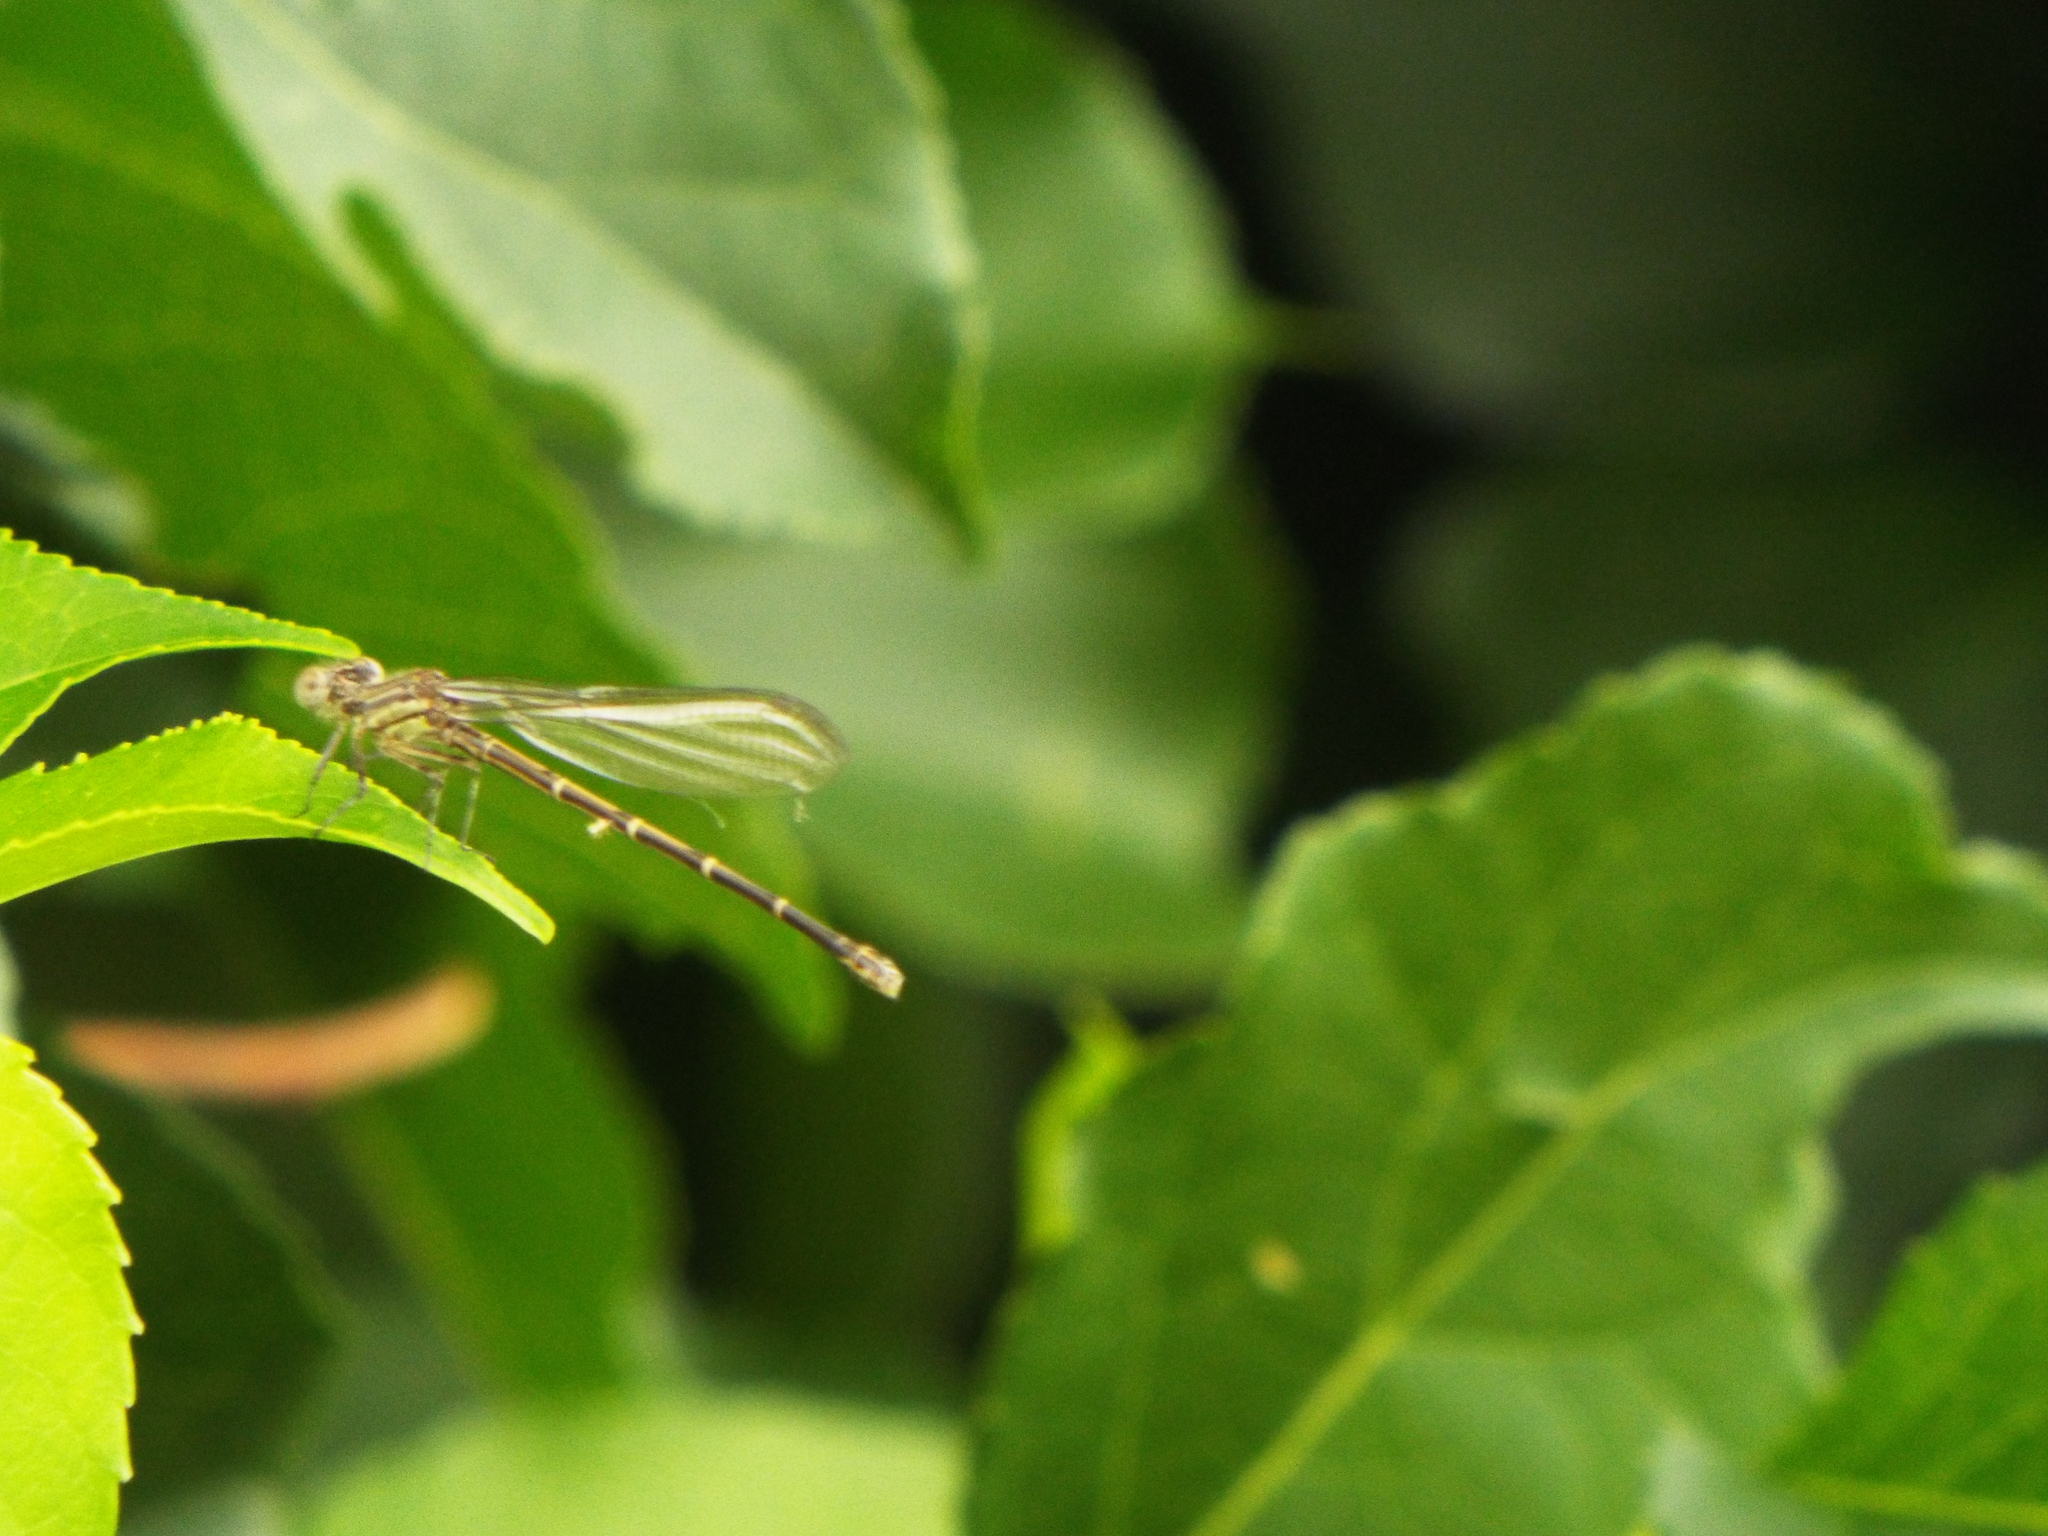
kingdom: Animalia
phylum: Arthropoda
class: Insecta
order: Odonata
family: Coenagrionidae
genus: Argia
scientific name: Argia translata
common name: Dusky dancer
